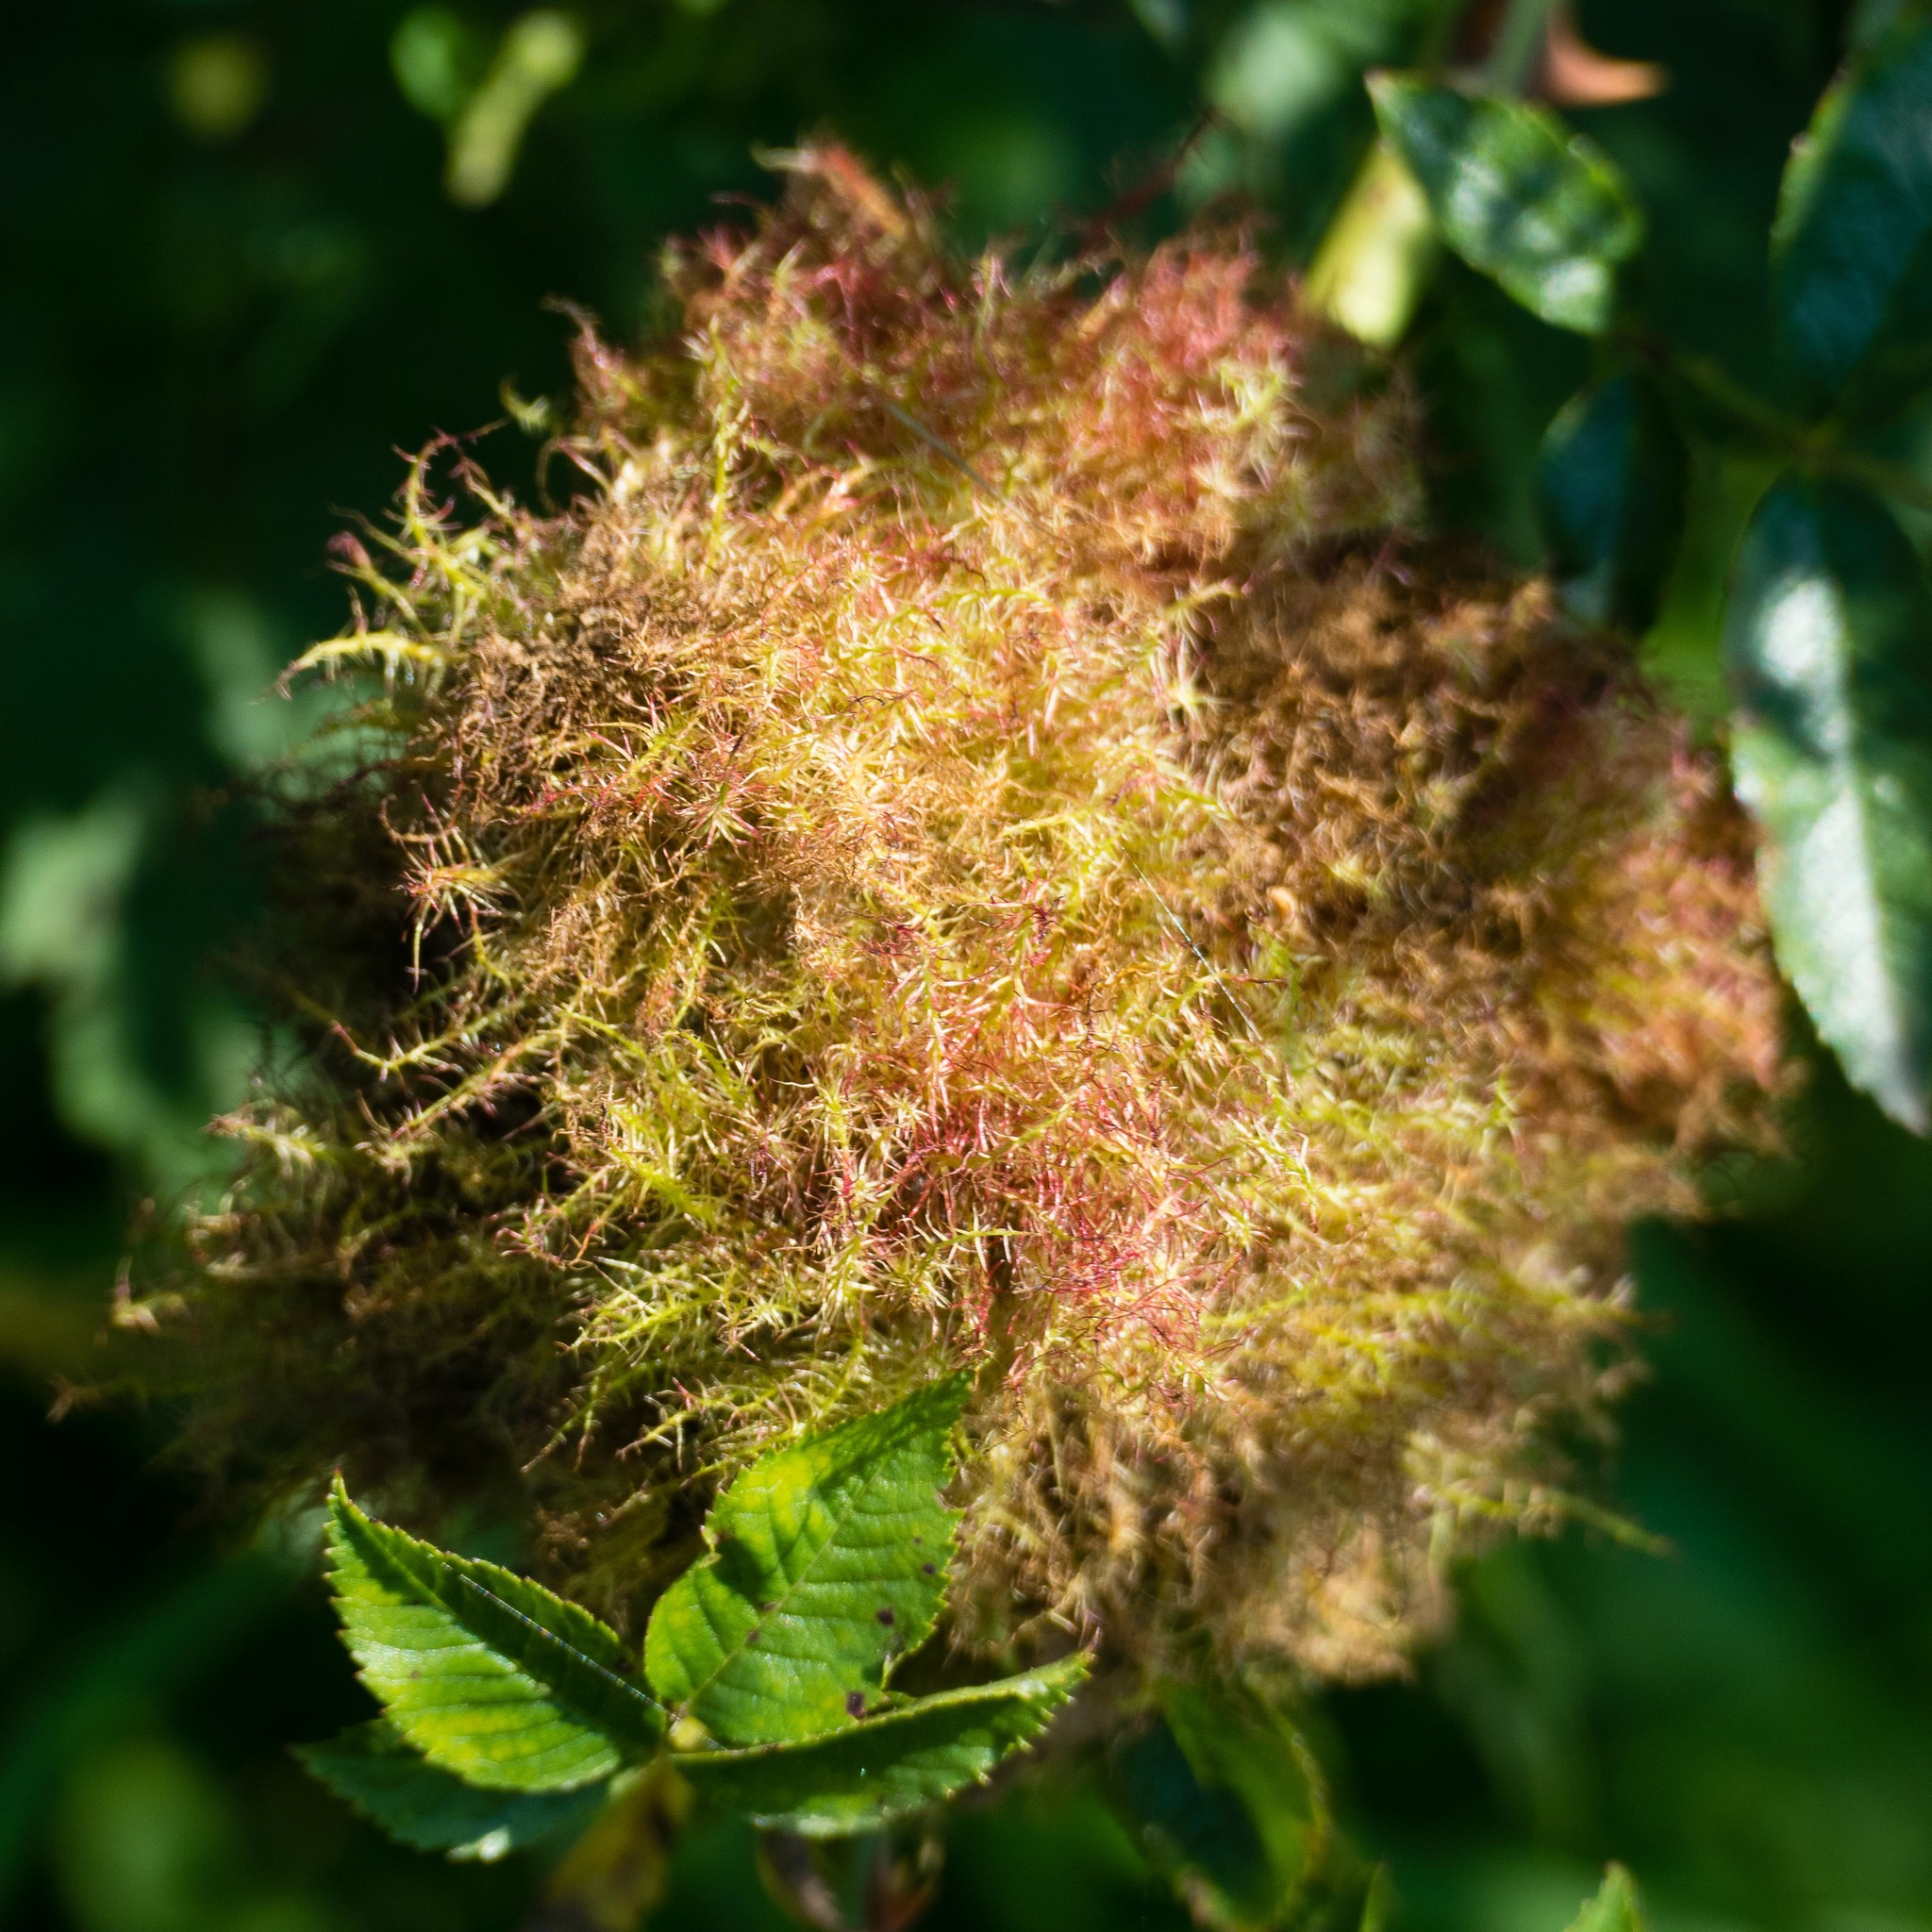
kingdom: Animalia
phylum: Arthropoda
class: Insecta
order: Hymenoptera
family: Cynipidae
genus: Diplolepis
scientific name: Diplolepis rosae
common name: Bedeguar gall
